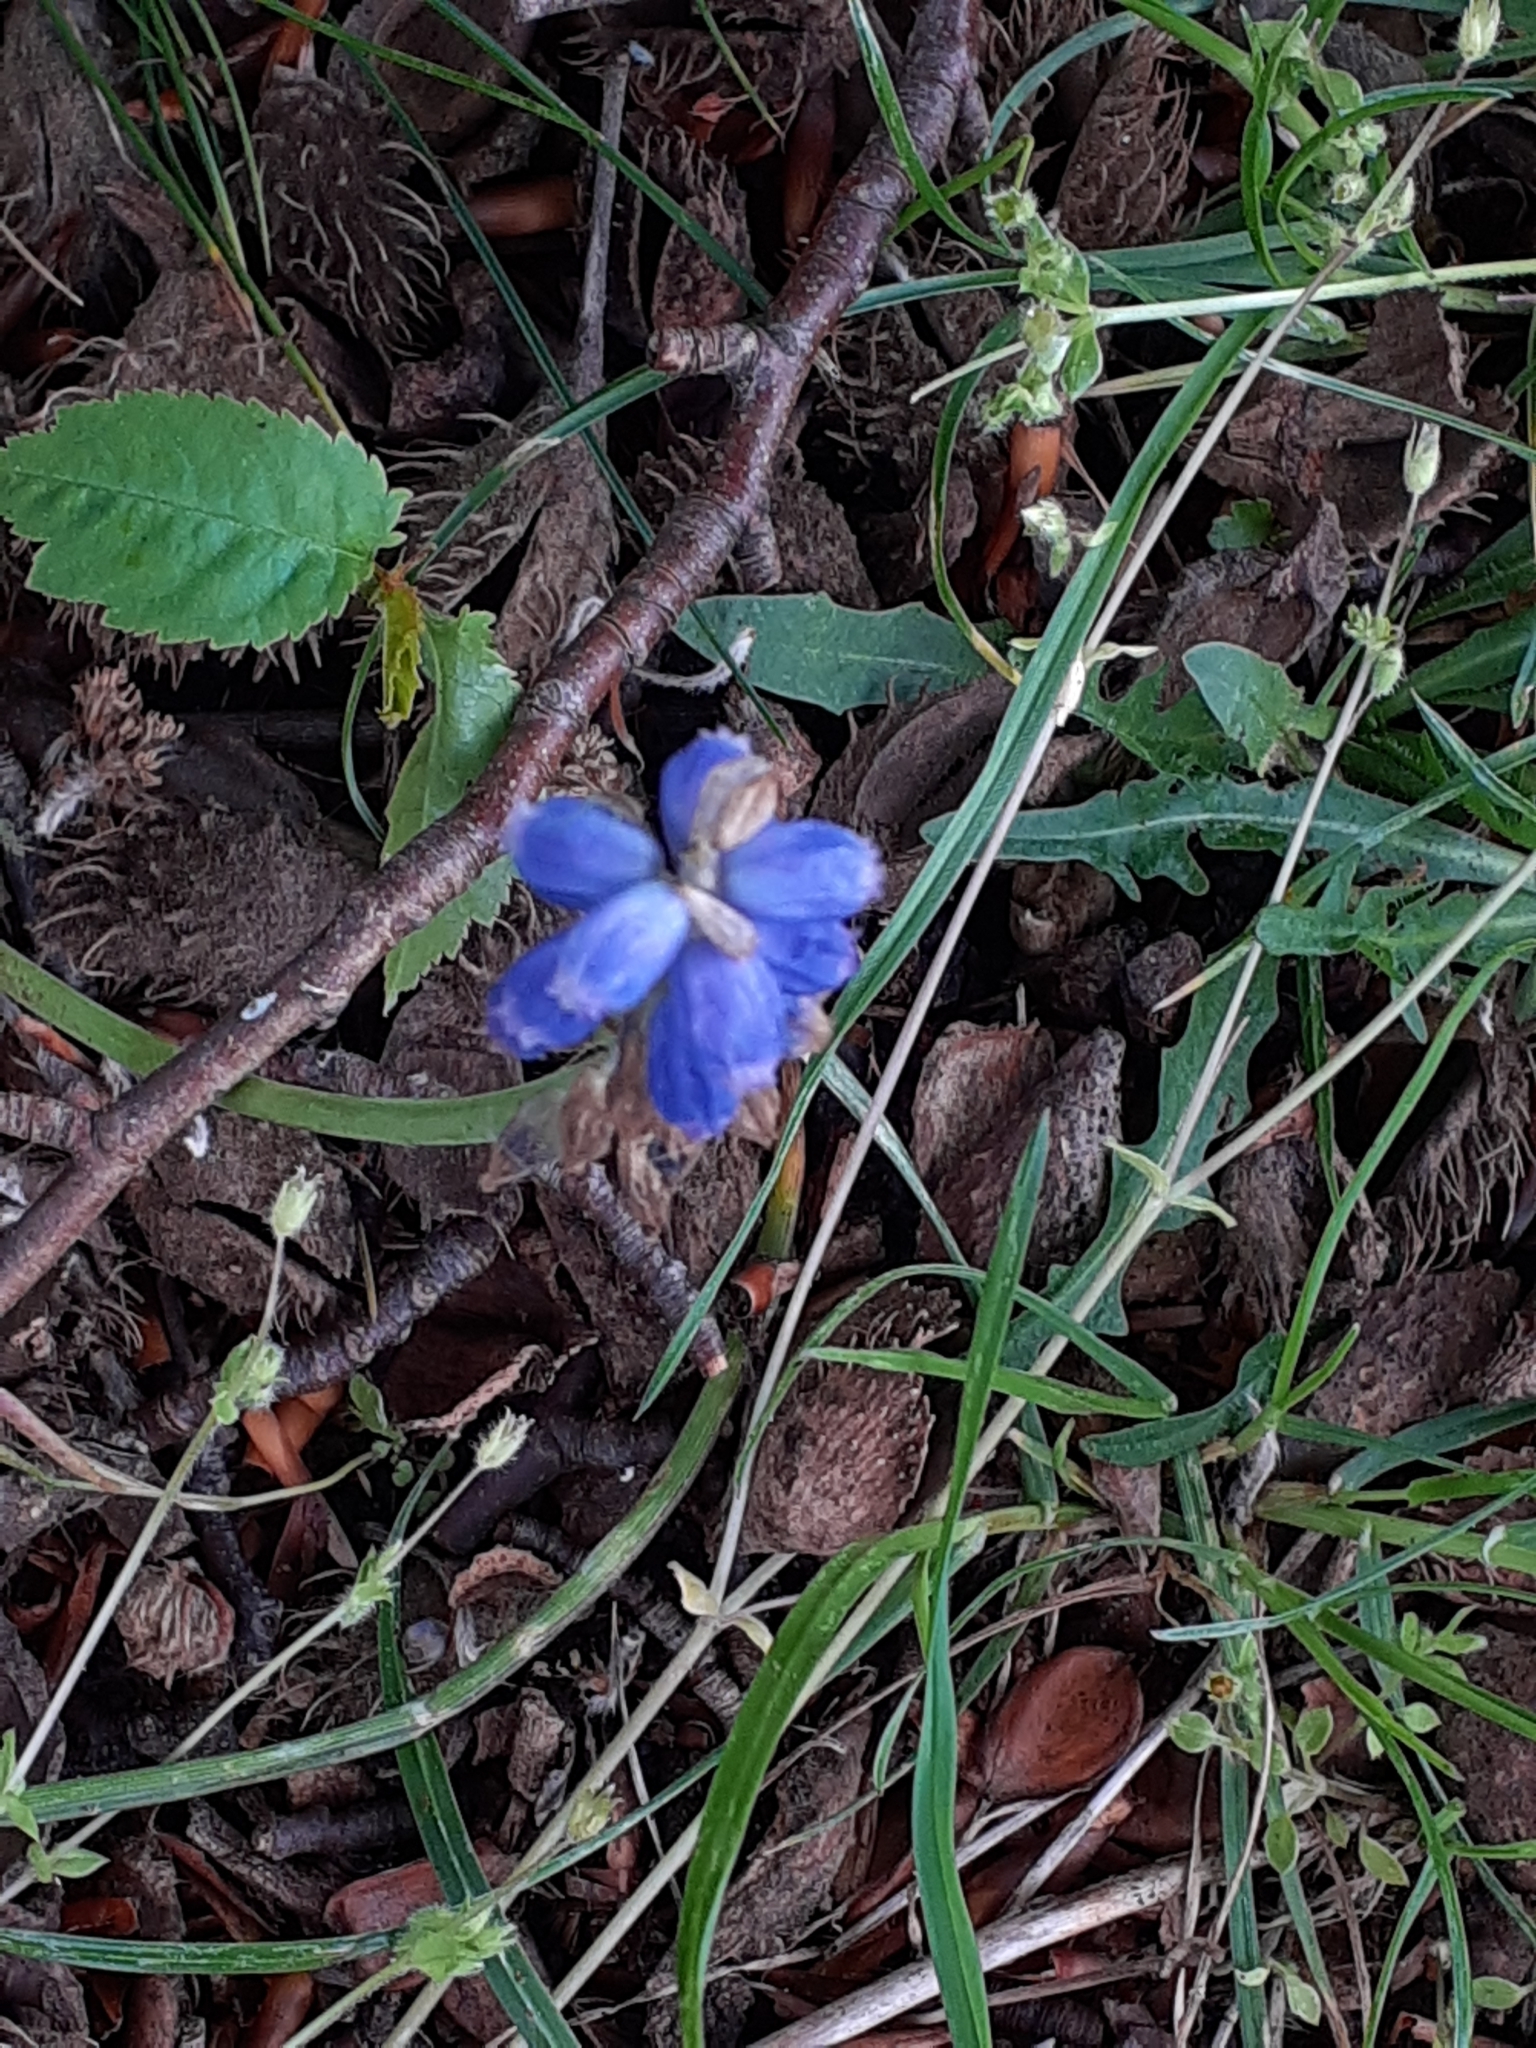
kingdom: Plantae
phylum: Tracheophyta
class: Liliopsida
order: Asparagales
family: Asparagaceae
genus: Muscari
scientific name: Muscari armeniacum
